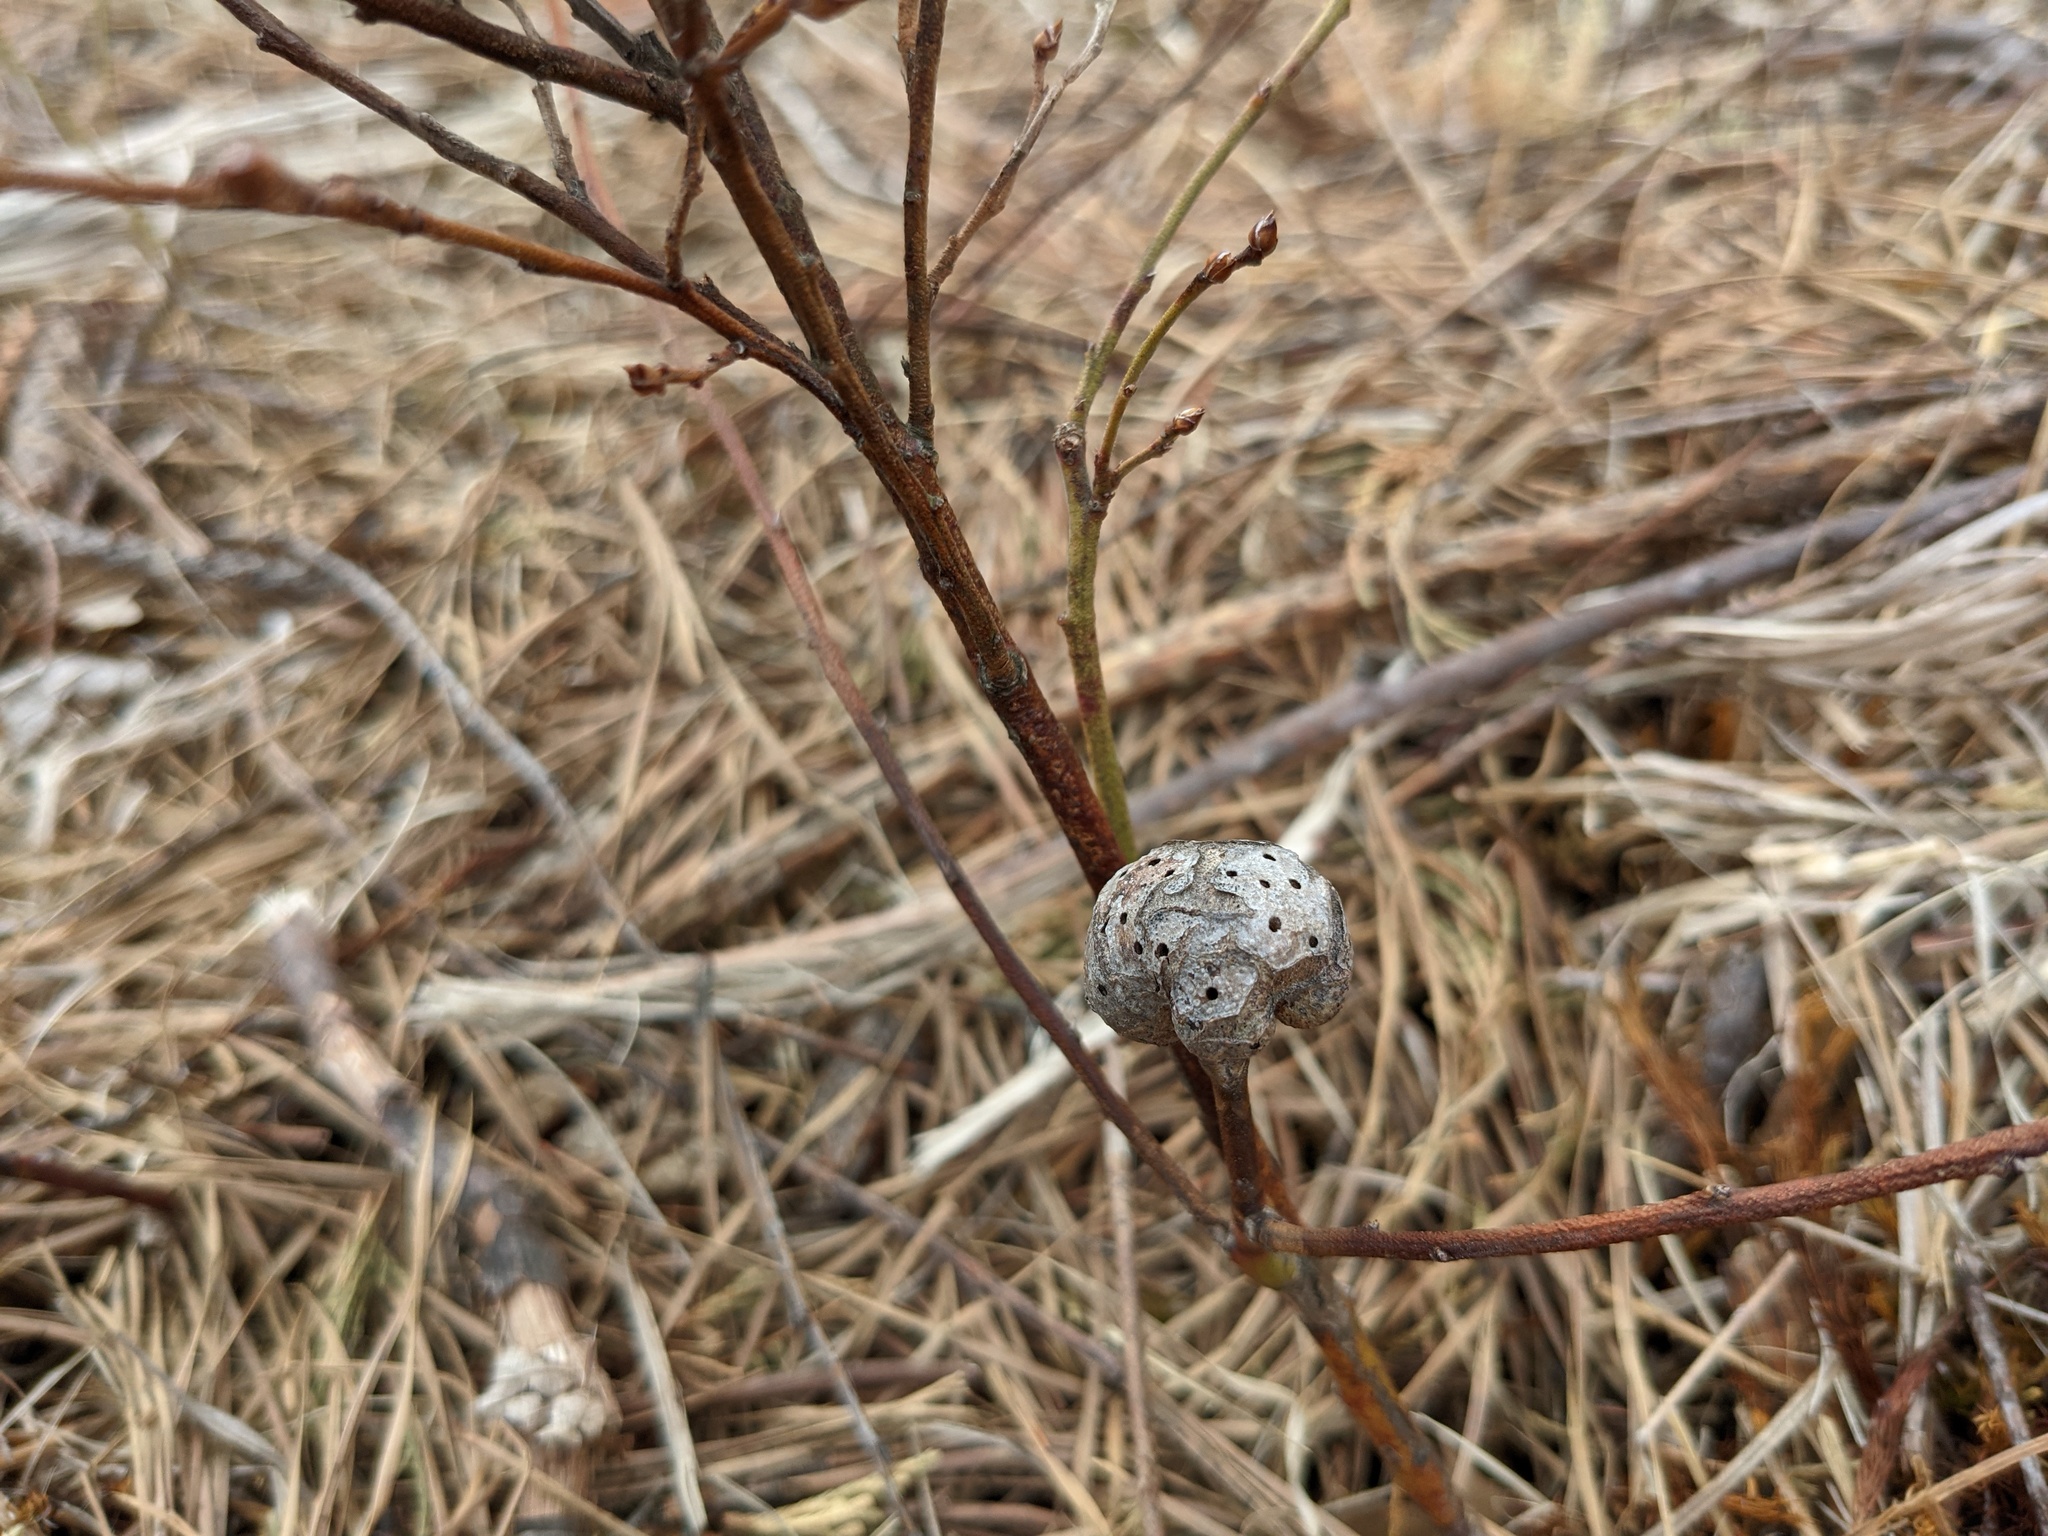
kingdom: Animalia
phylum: Arthropoda
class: Insecta
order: Hymenoptera
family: Pteromalidae
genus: Hemadas
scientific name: Hemadas nubilipennis
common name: Blueberry stem gall wasp
